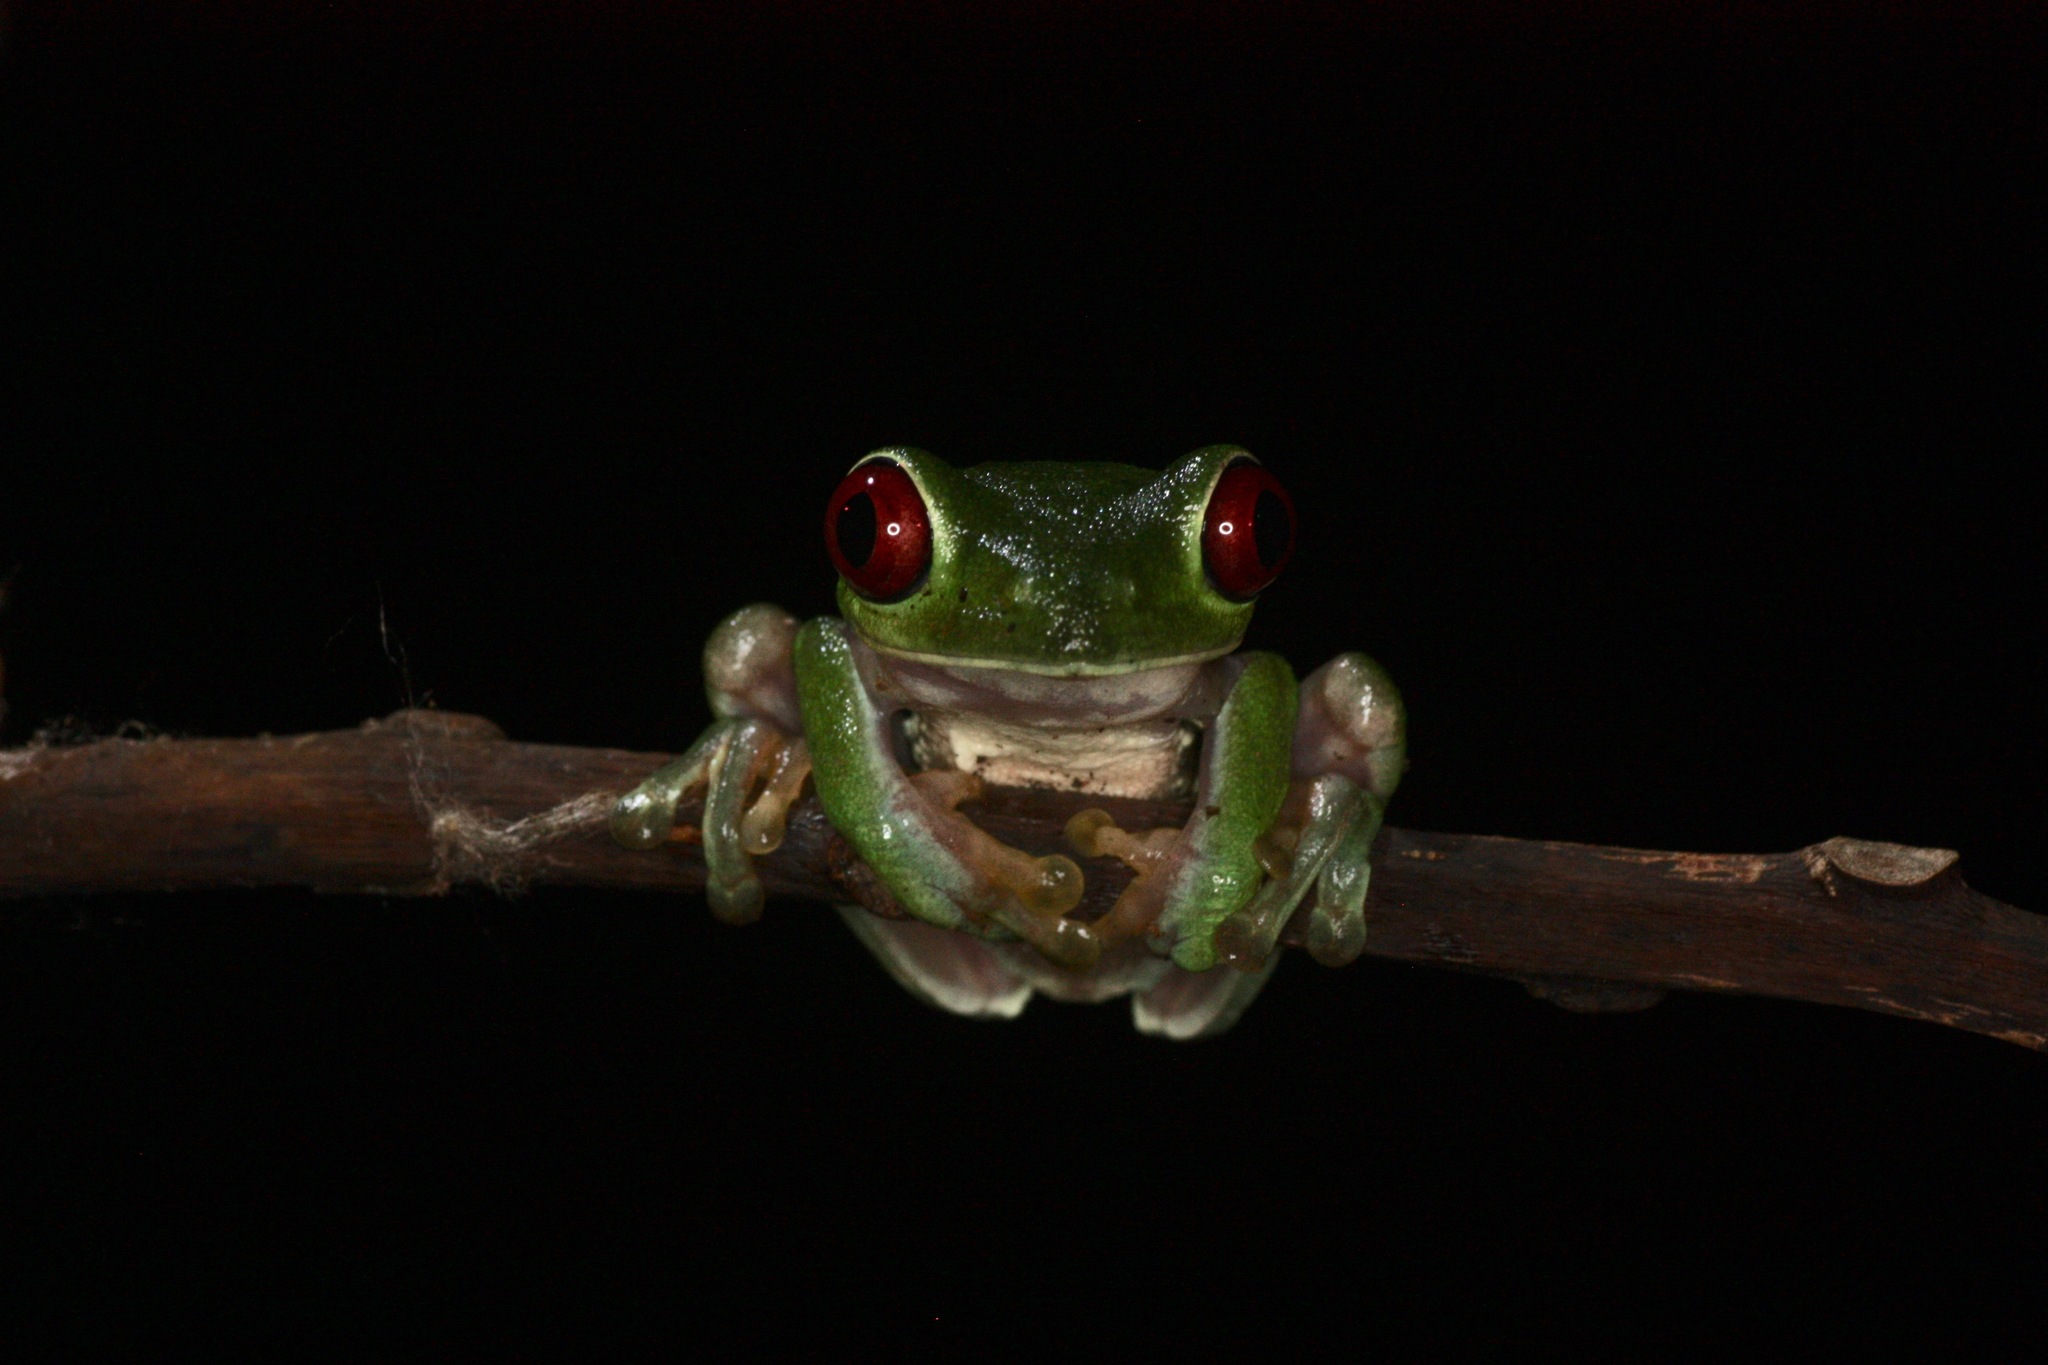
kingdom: Animalia
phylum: Chordata
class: Amphibia
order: Anura
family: Phyllomedusidae
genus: Agalychnis
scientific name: Agalychnis callidryas
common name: Red-eyed treefrog
